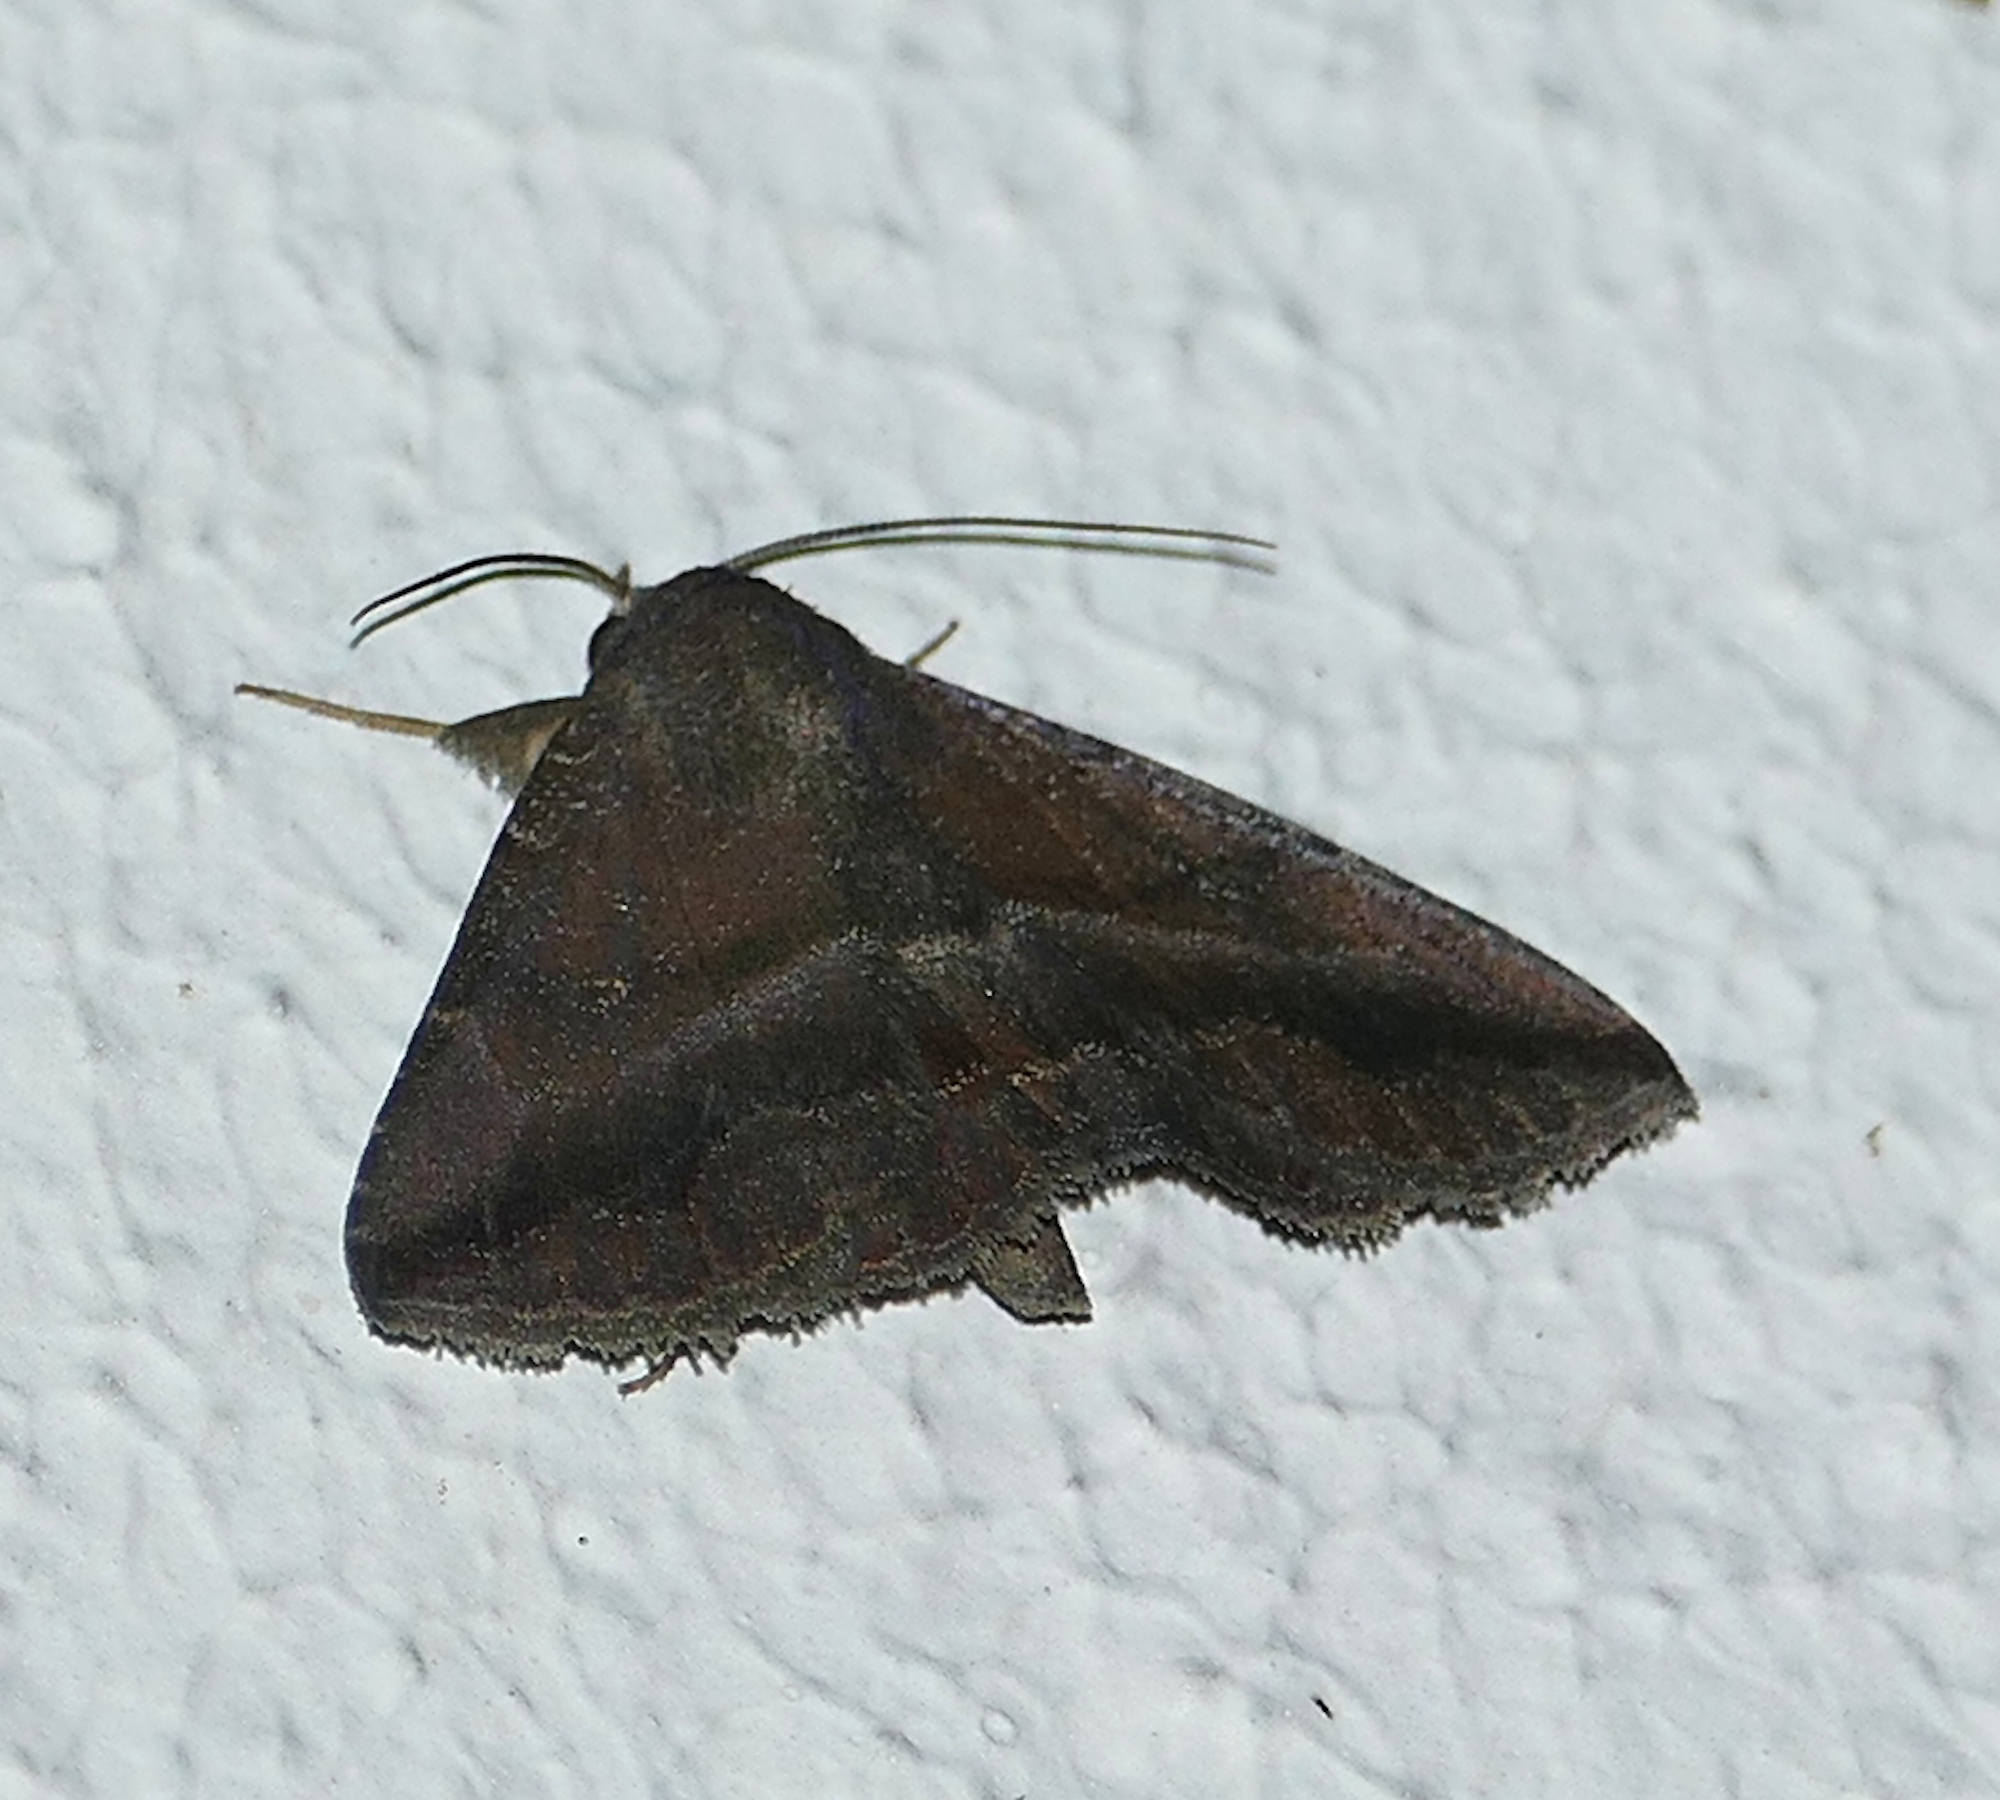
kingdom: Animalia
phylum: Arthropoda
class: Insecta
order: Lepidoptera
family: Erebidae
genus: Lesmone
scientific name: Lesmone detrahens
